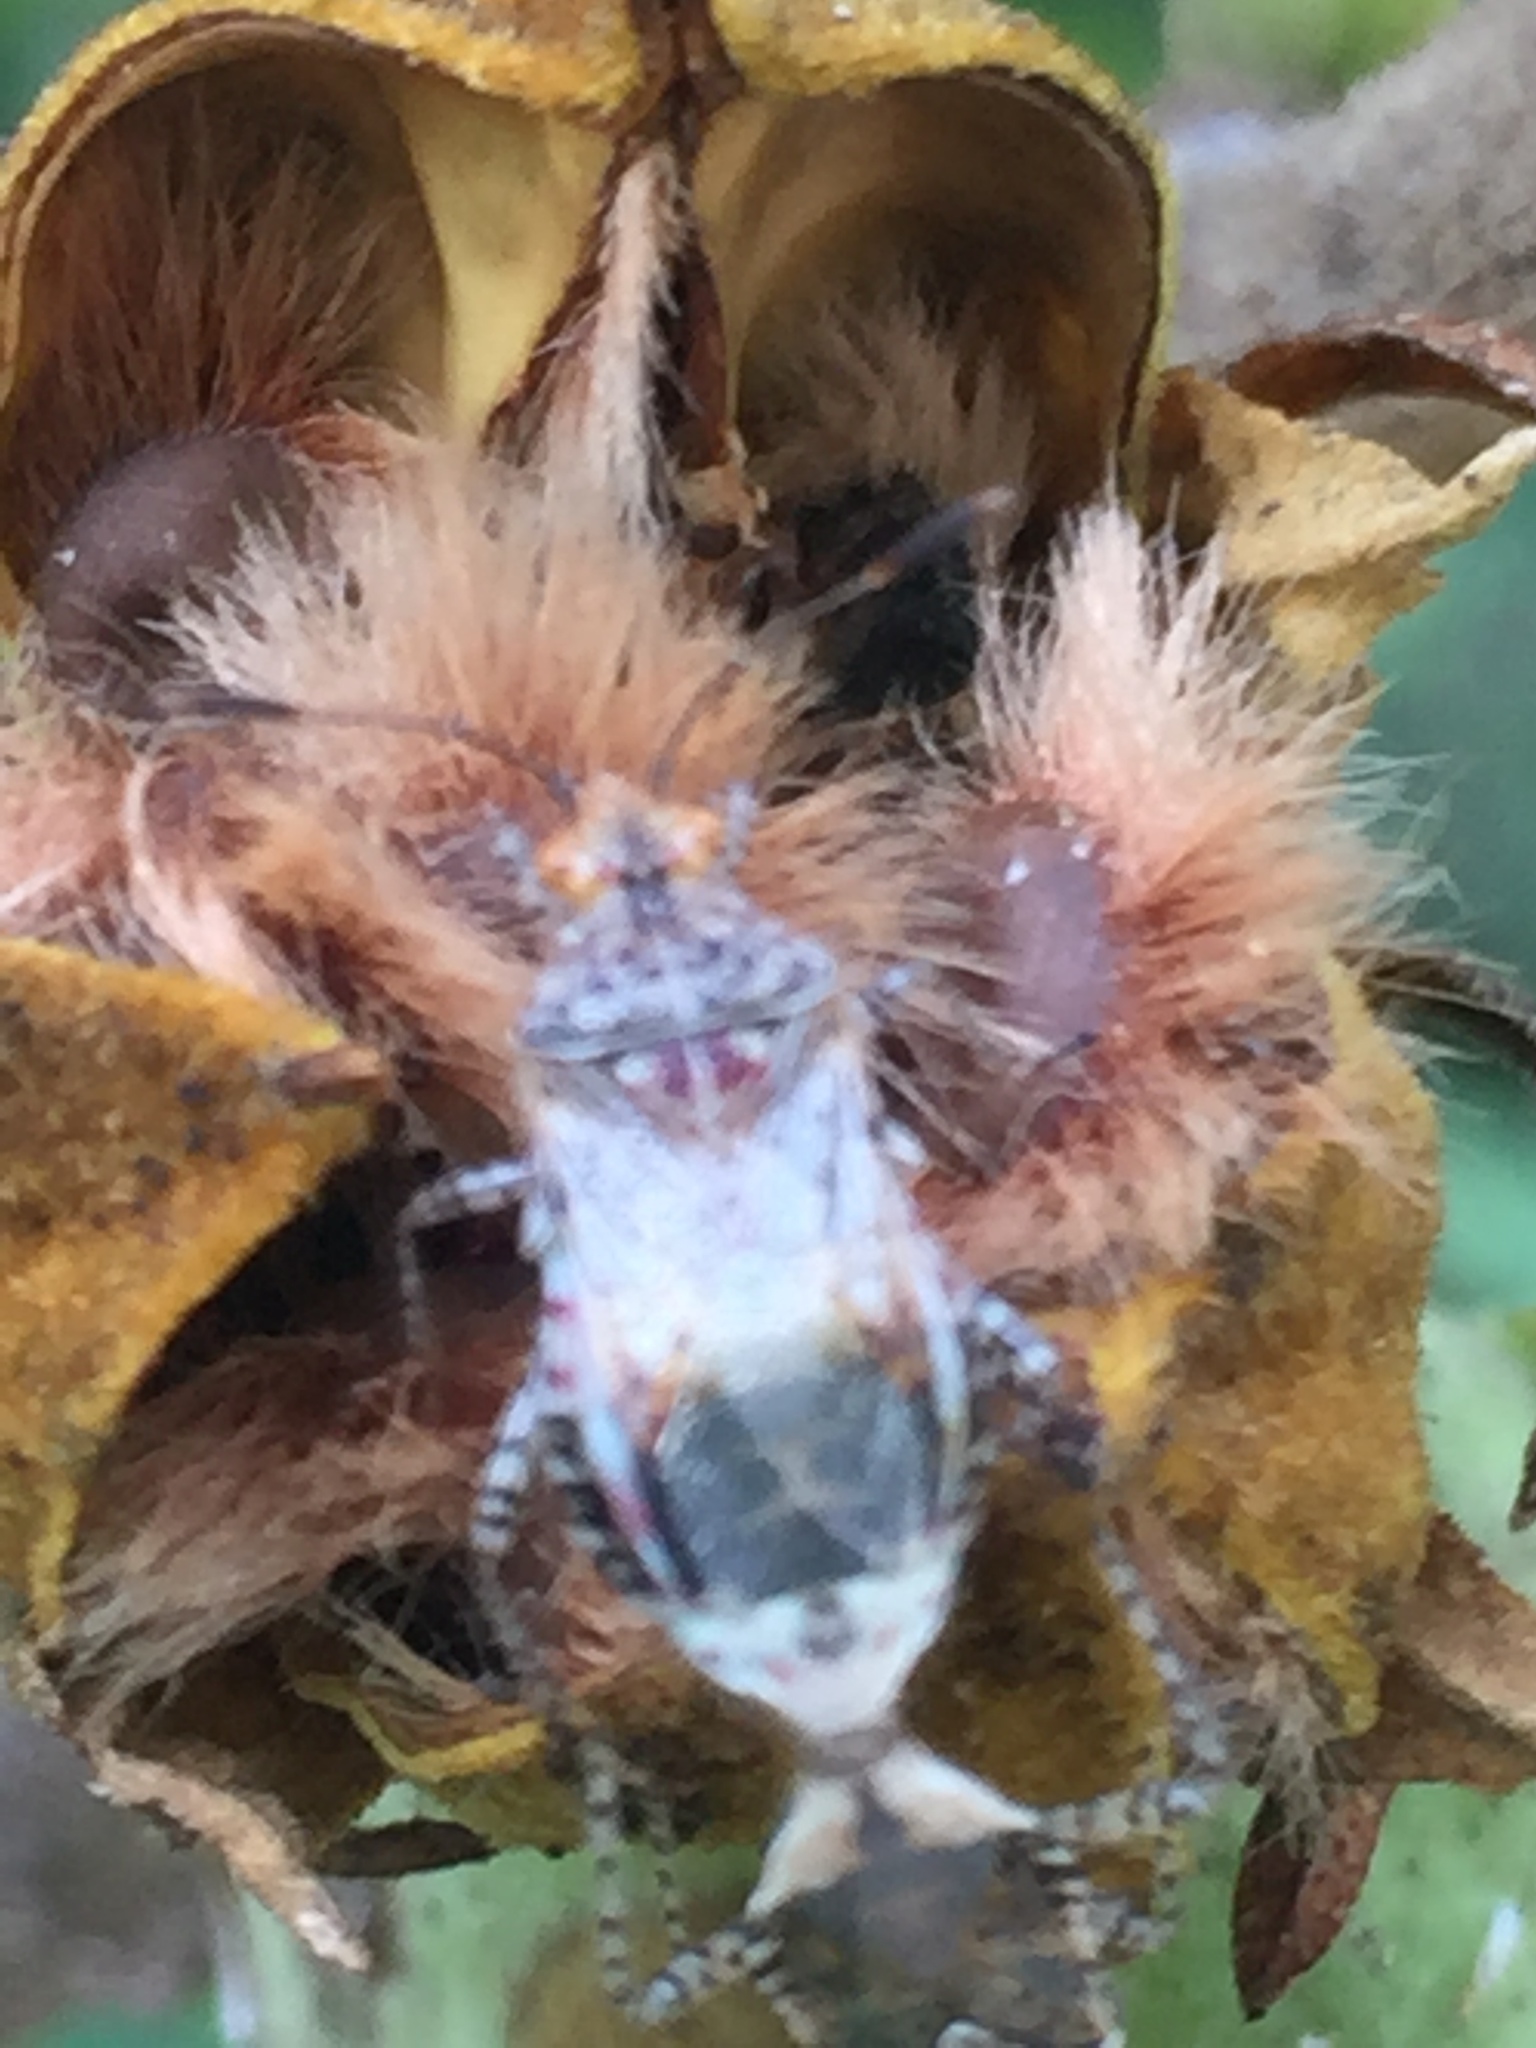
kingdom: Animalia
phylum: Arthropoda
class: Insecta
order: Hemiptera
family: Rhopalidae
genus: Niesthrea
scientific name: Niesthrea louisianica
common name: Scentless plant bug
